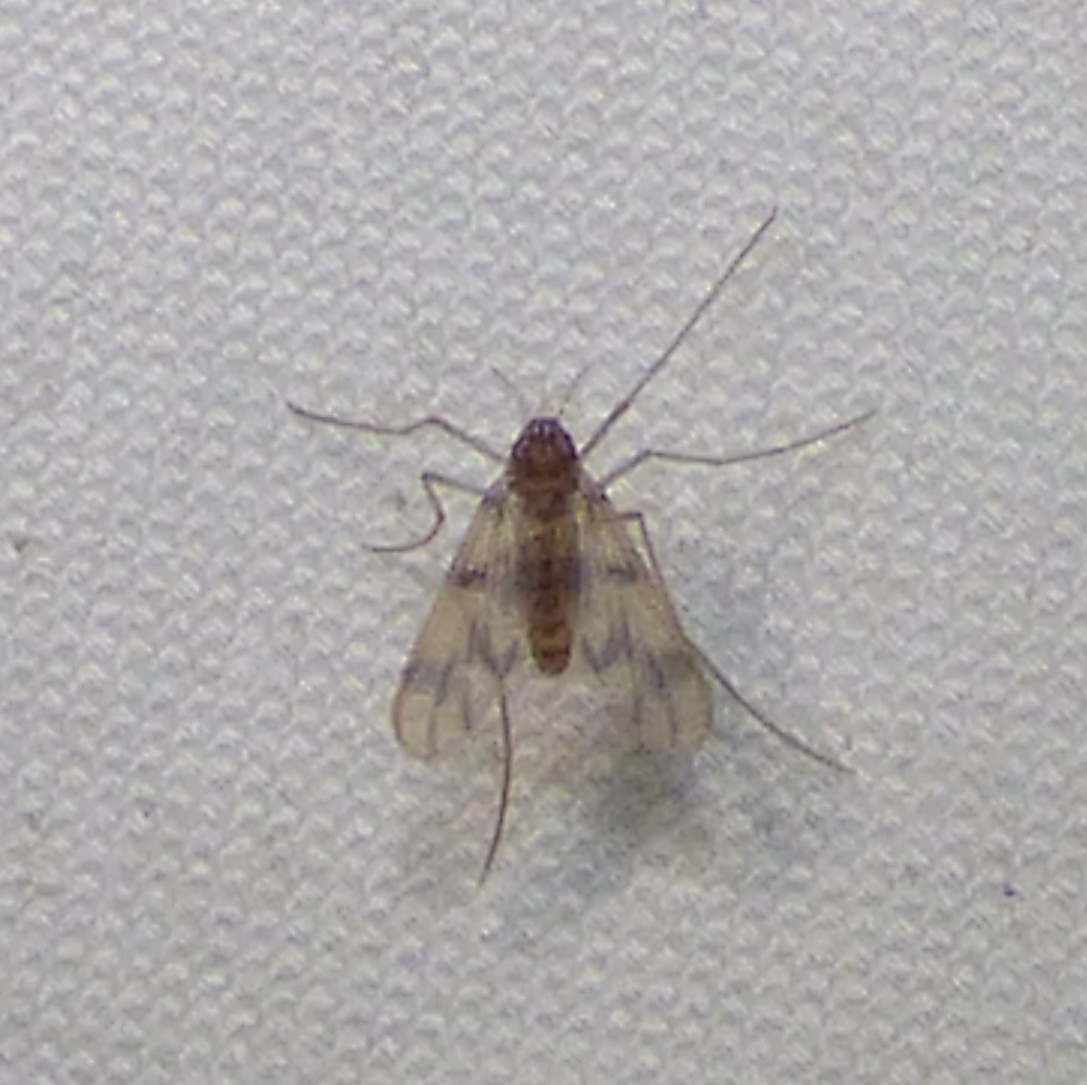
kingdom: Animalia
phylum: Arthropoda
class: Insecta
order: Diptera
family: Chironomidae
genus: Zavrelimyia
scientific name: Zavrelimyia sinuosa
